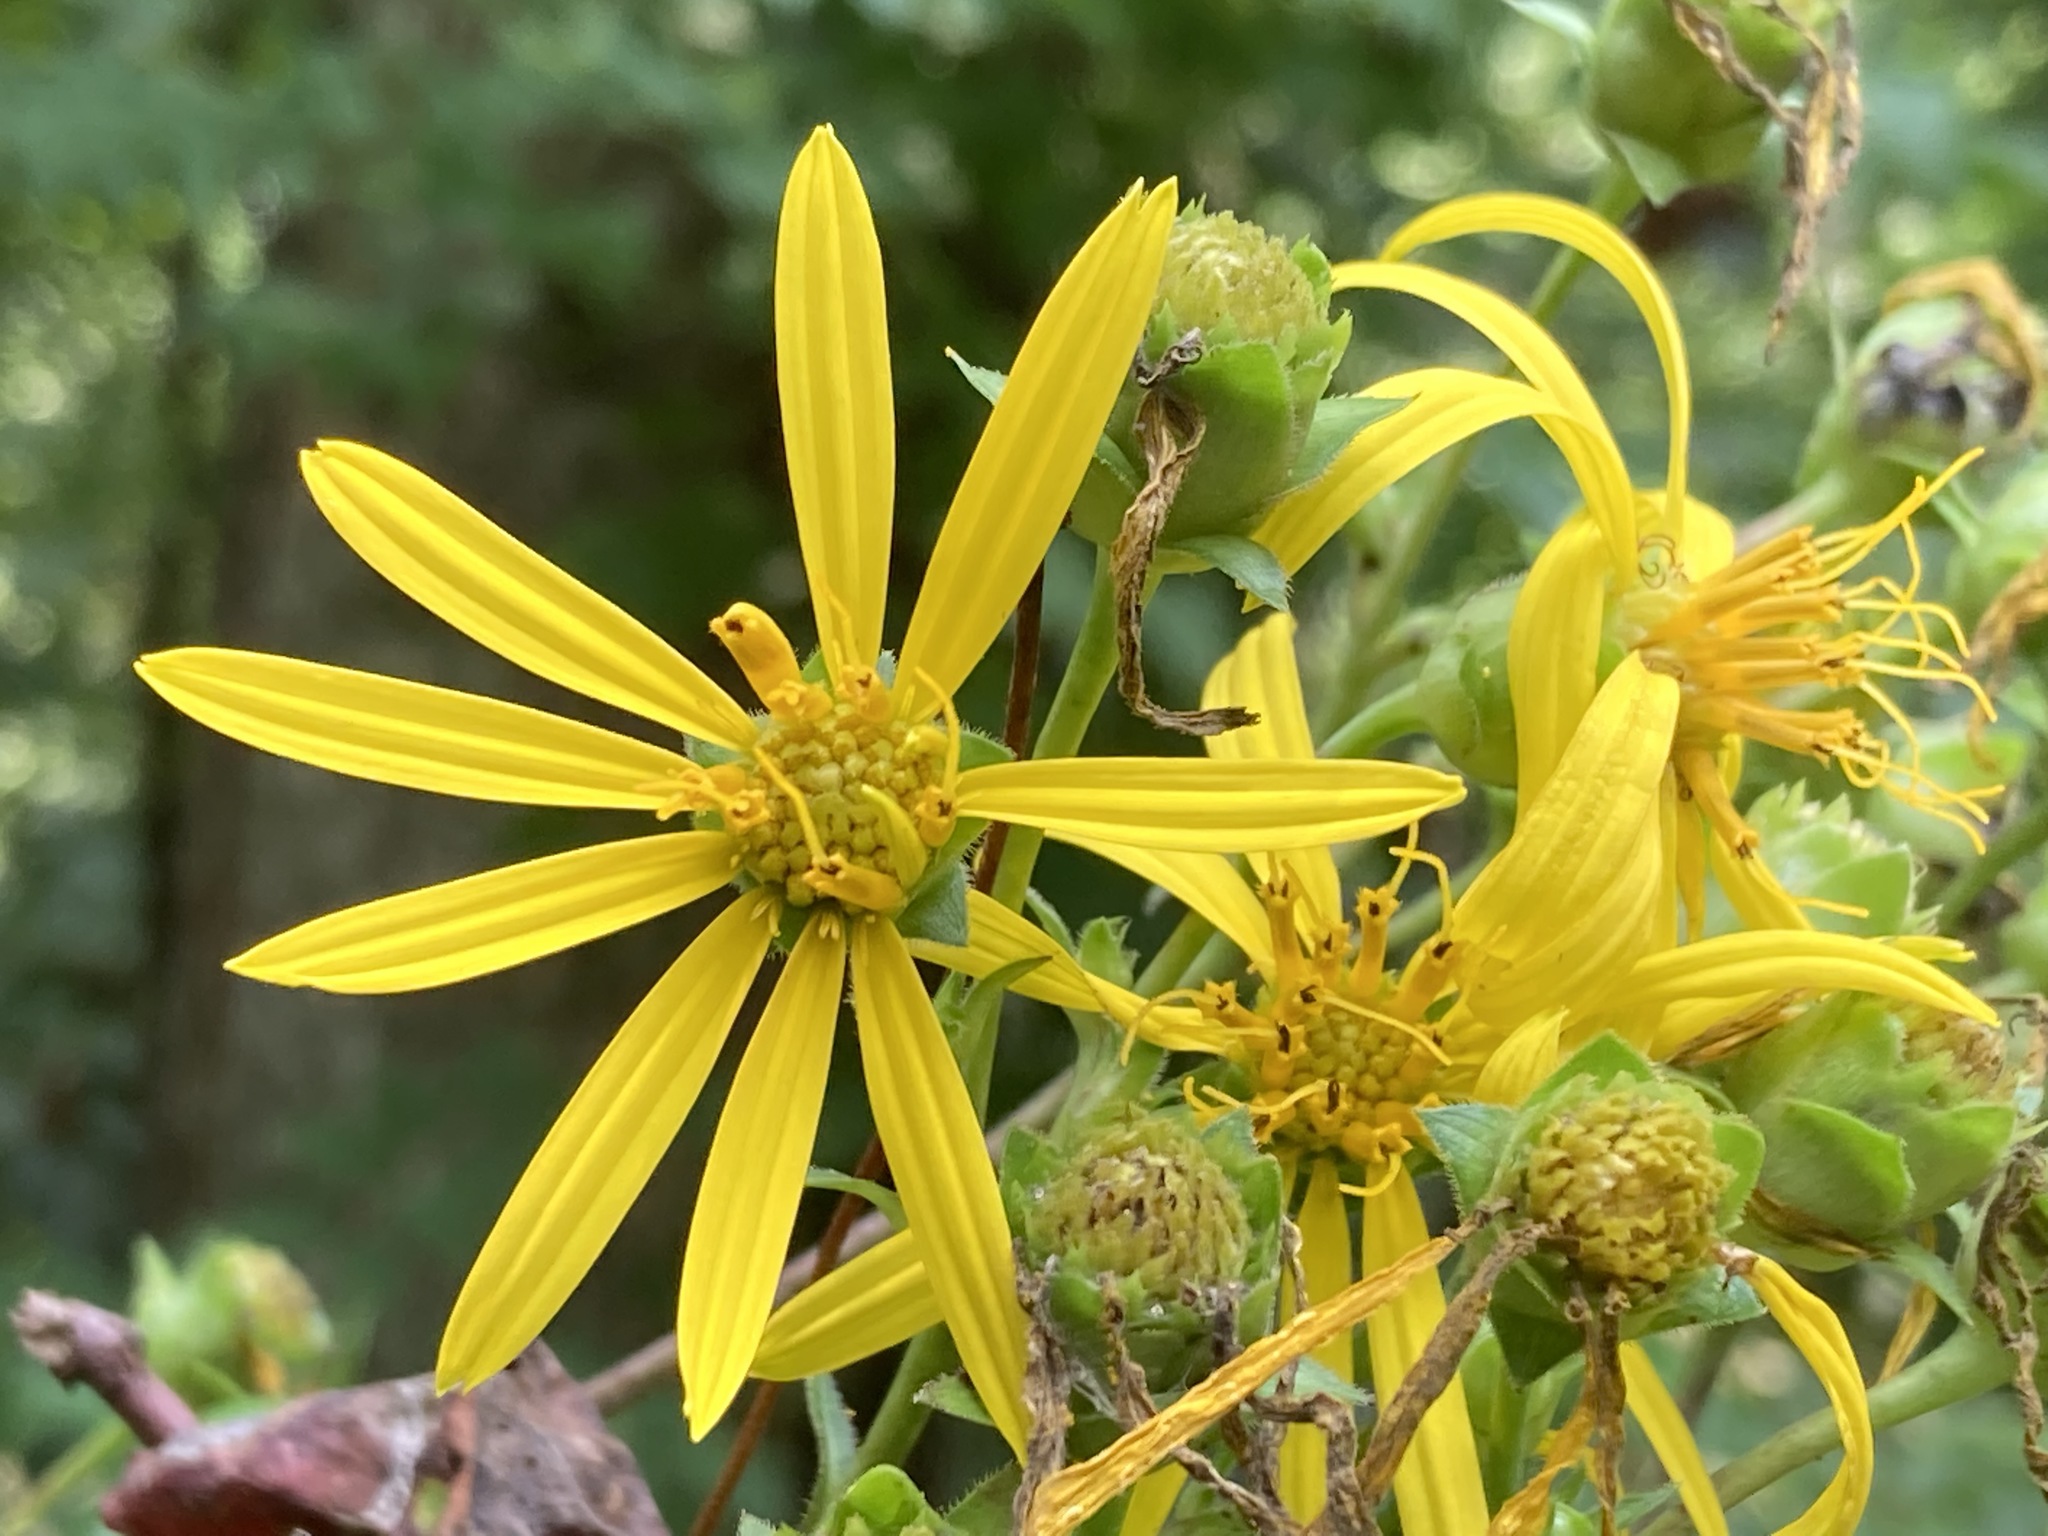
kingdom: Plantae
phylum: Tracheophyta
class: Magnoliopsida
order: Asterales
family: Asteraceae
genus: Silphium
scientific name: Silphium asteriscus
